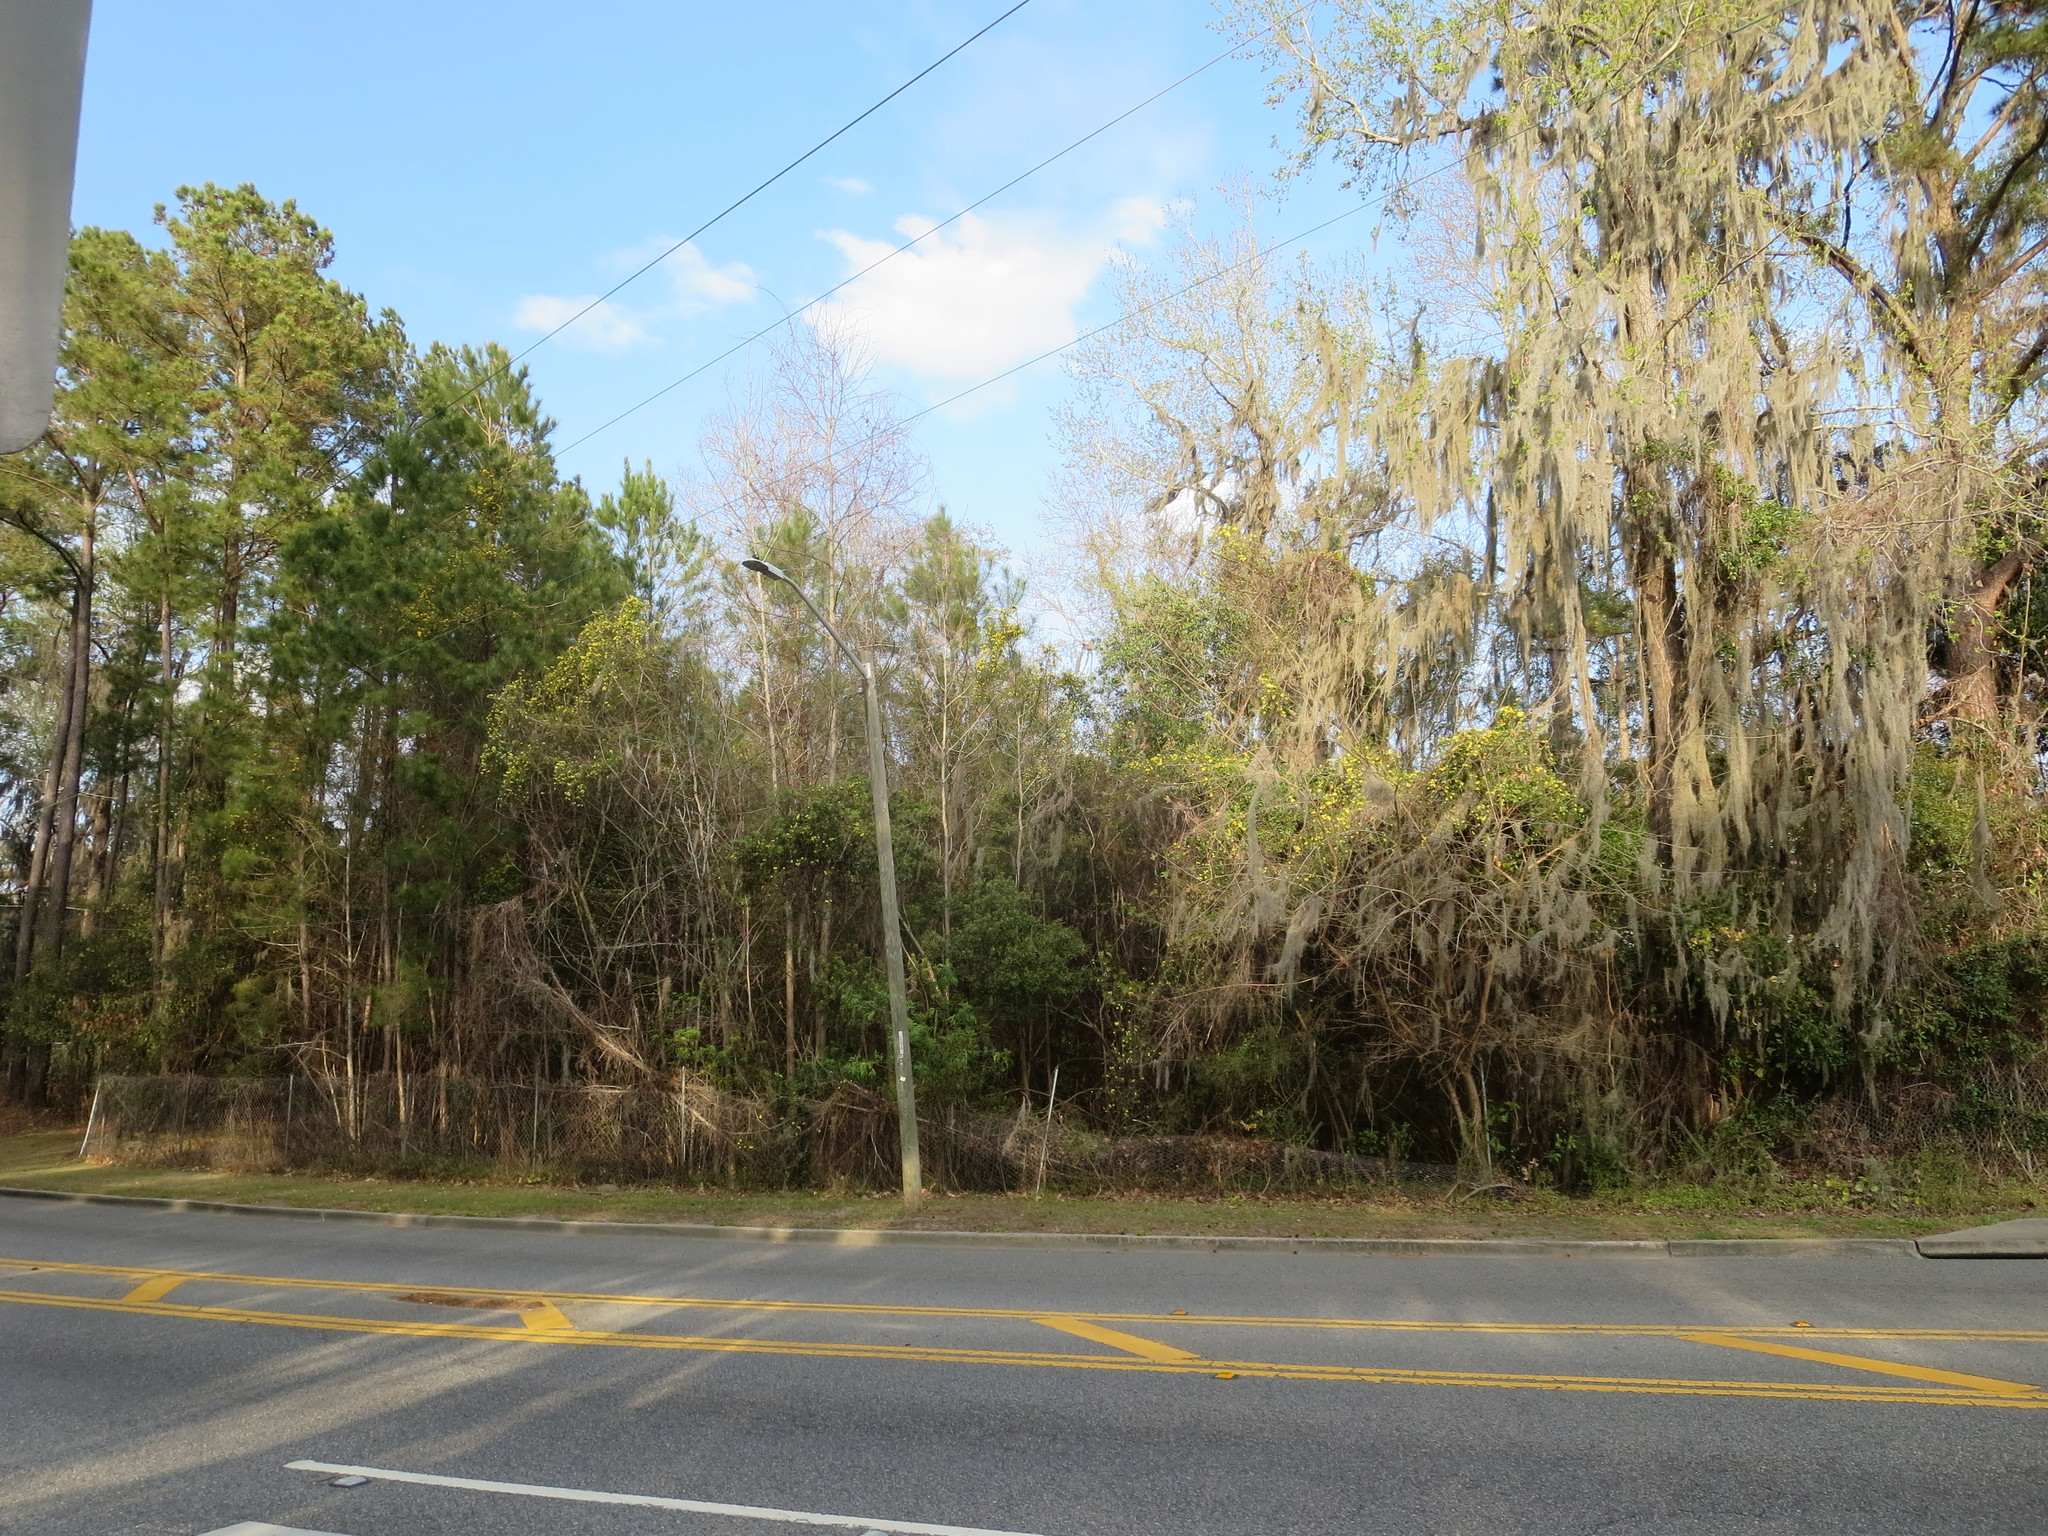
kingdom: Plantae
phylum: Tracheophyta
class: Magnoliopsida
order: Gentianales
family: Gelsemiaceae
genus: Gelsemium
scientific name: Gelsemium sempervirens
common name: Carolina-jasmine
